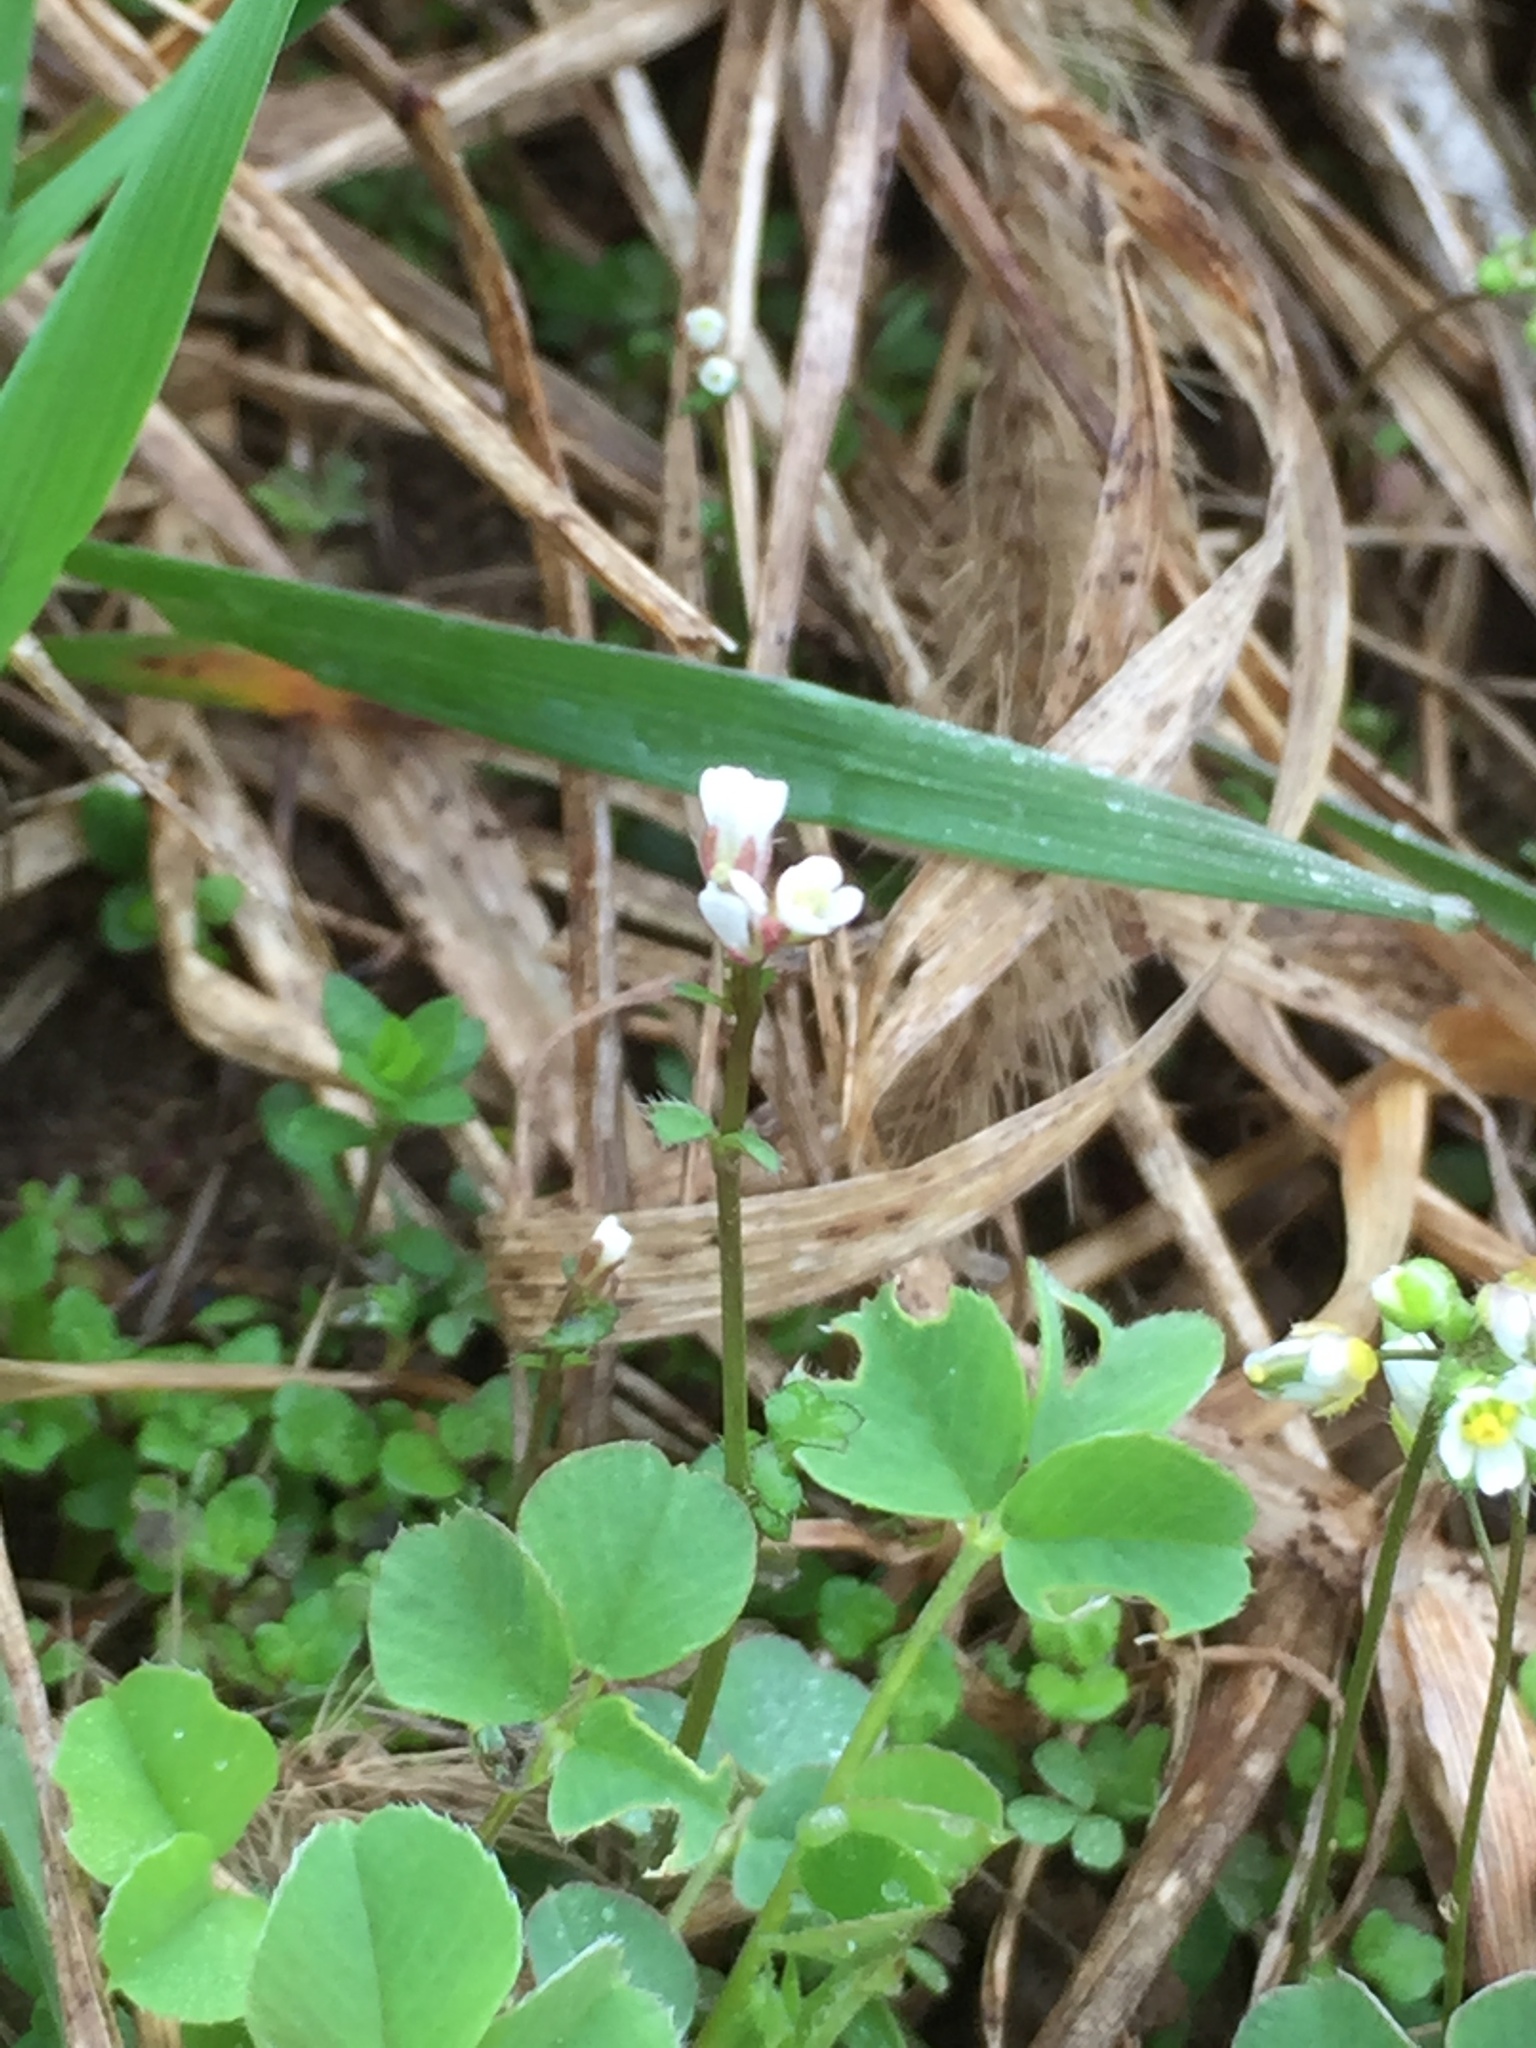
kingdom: Plantae
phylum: Tracheophyta
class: Magnoliopsida
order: Brassicales
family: Brassicaceae
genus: Draba
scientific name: Draba verna
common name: Spring draba
